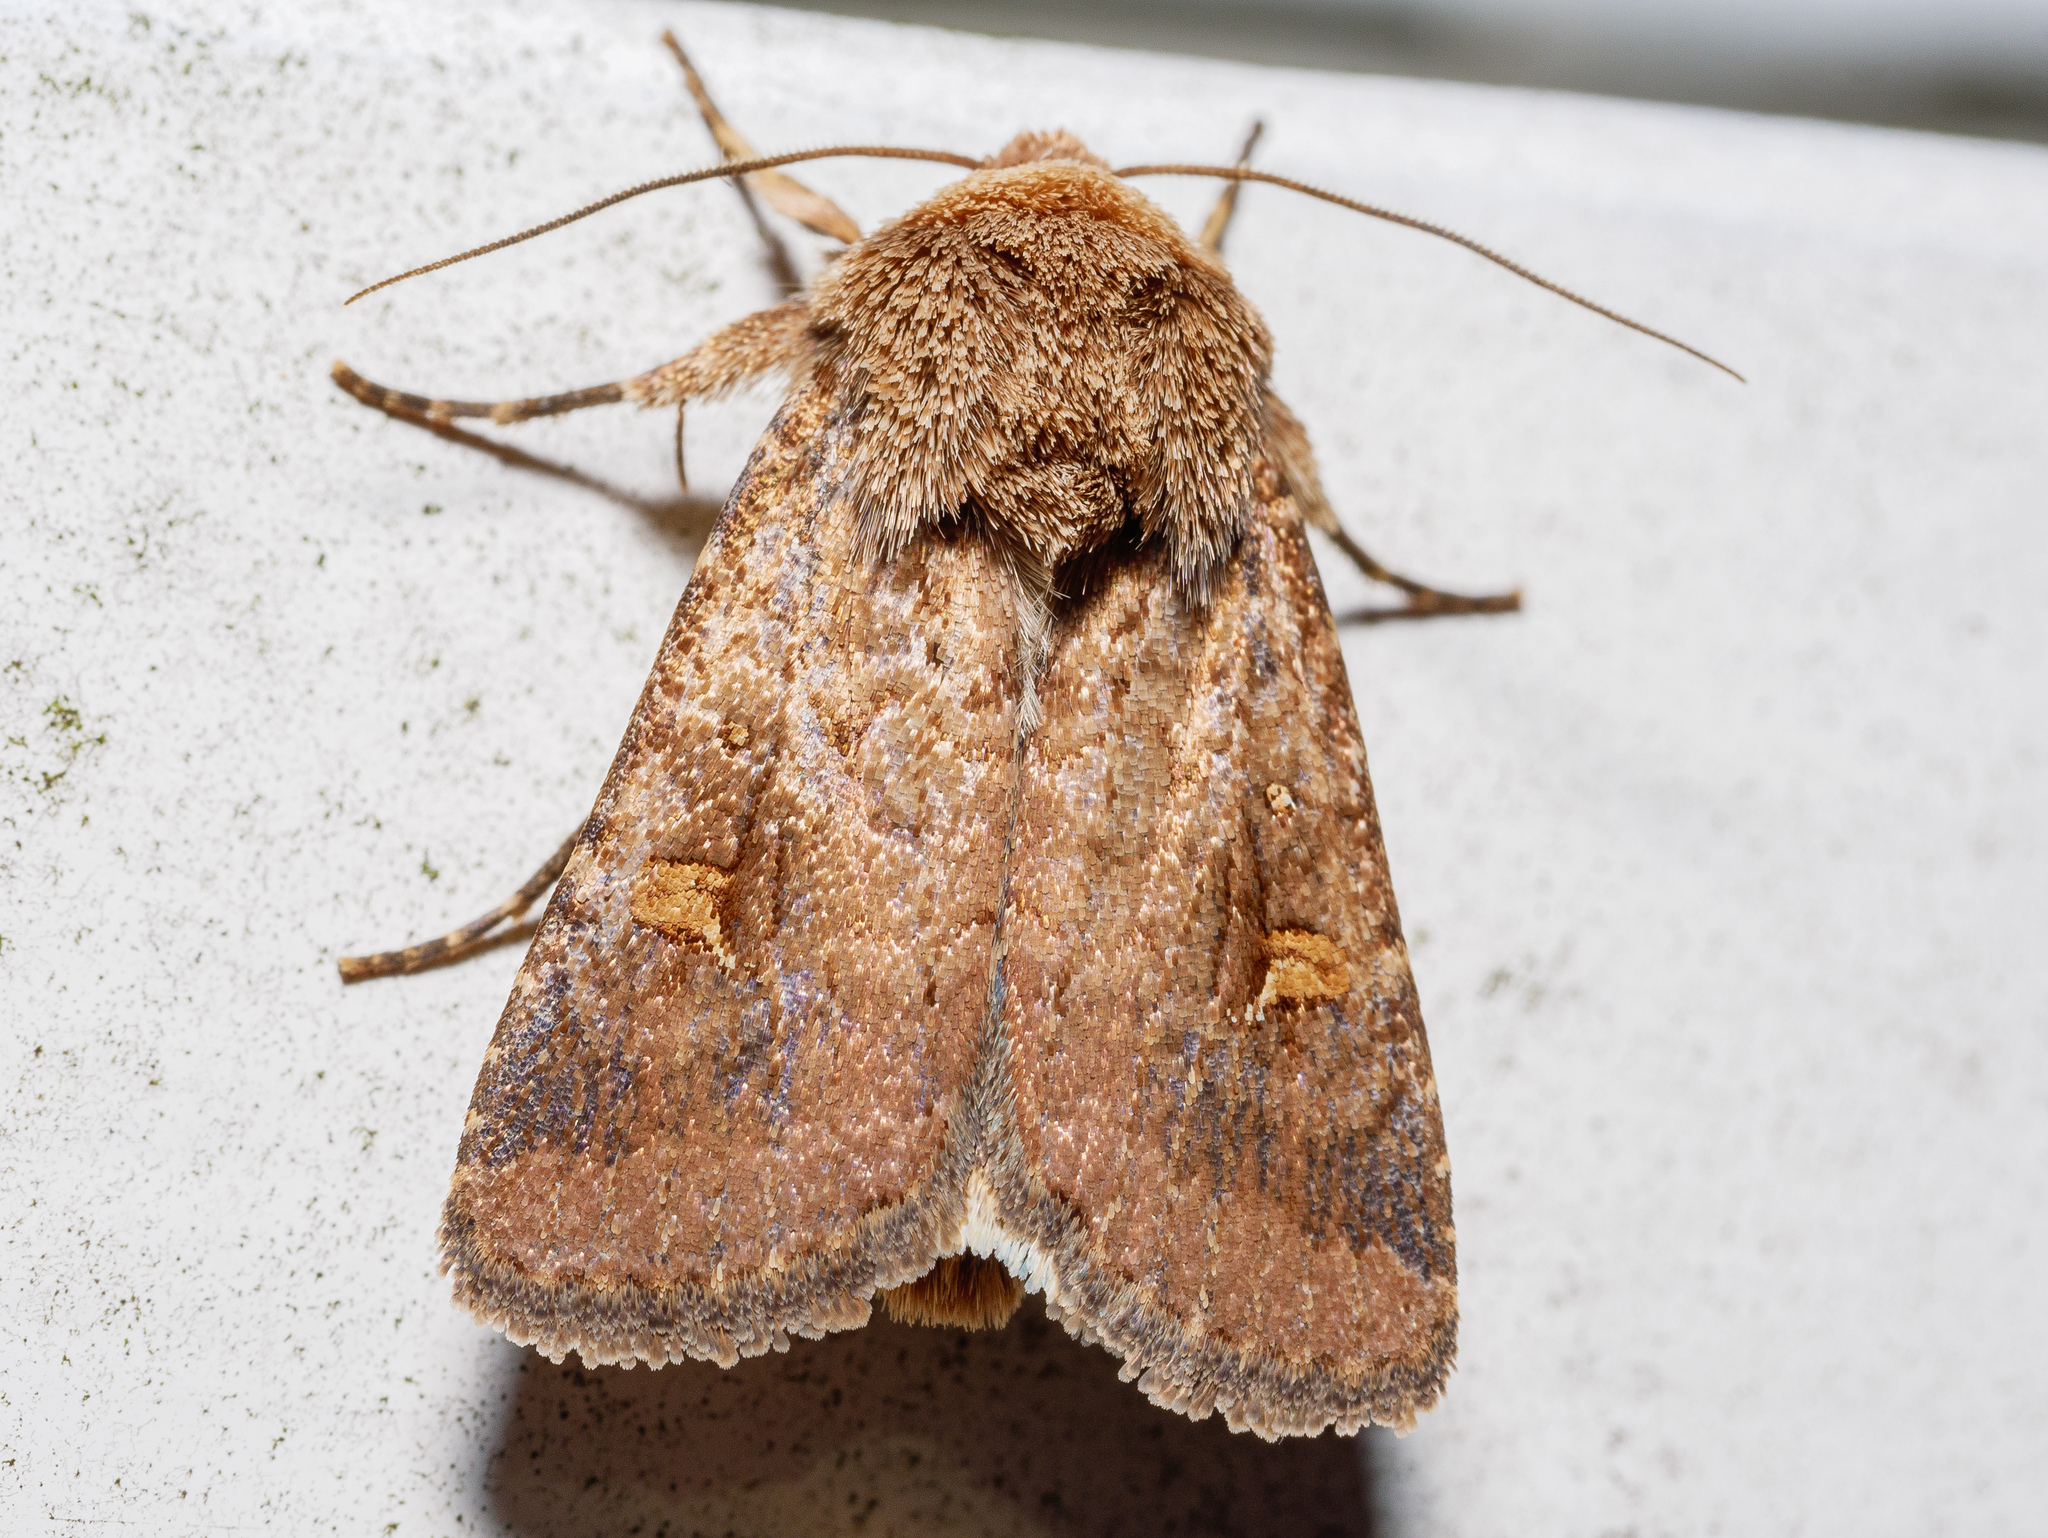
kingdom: Animalia
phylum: Arthropoda
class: Insecta
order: Lepidoptera
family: Noctuidae
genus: Proteuxoa
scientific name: Proteuxoa tetronycha
